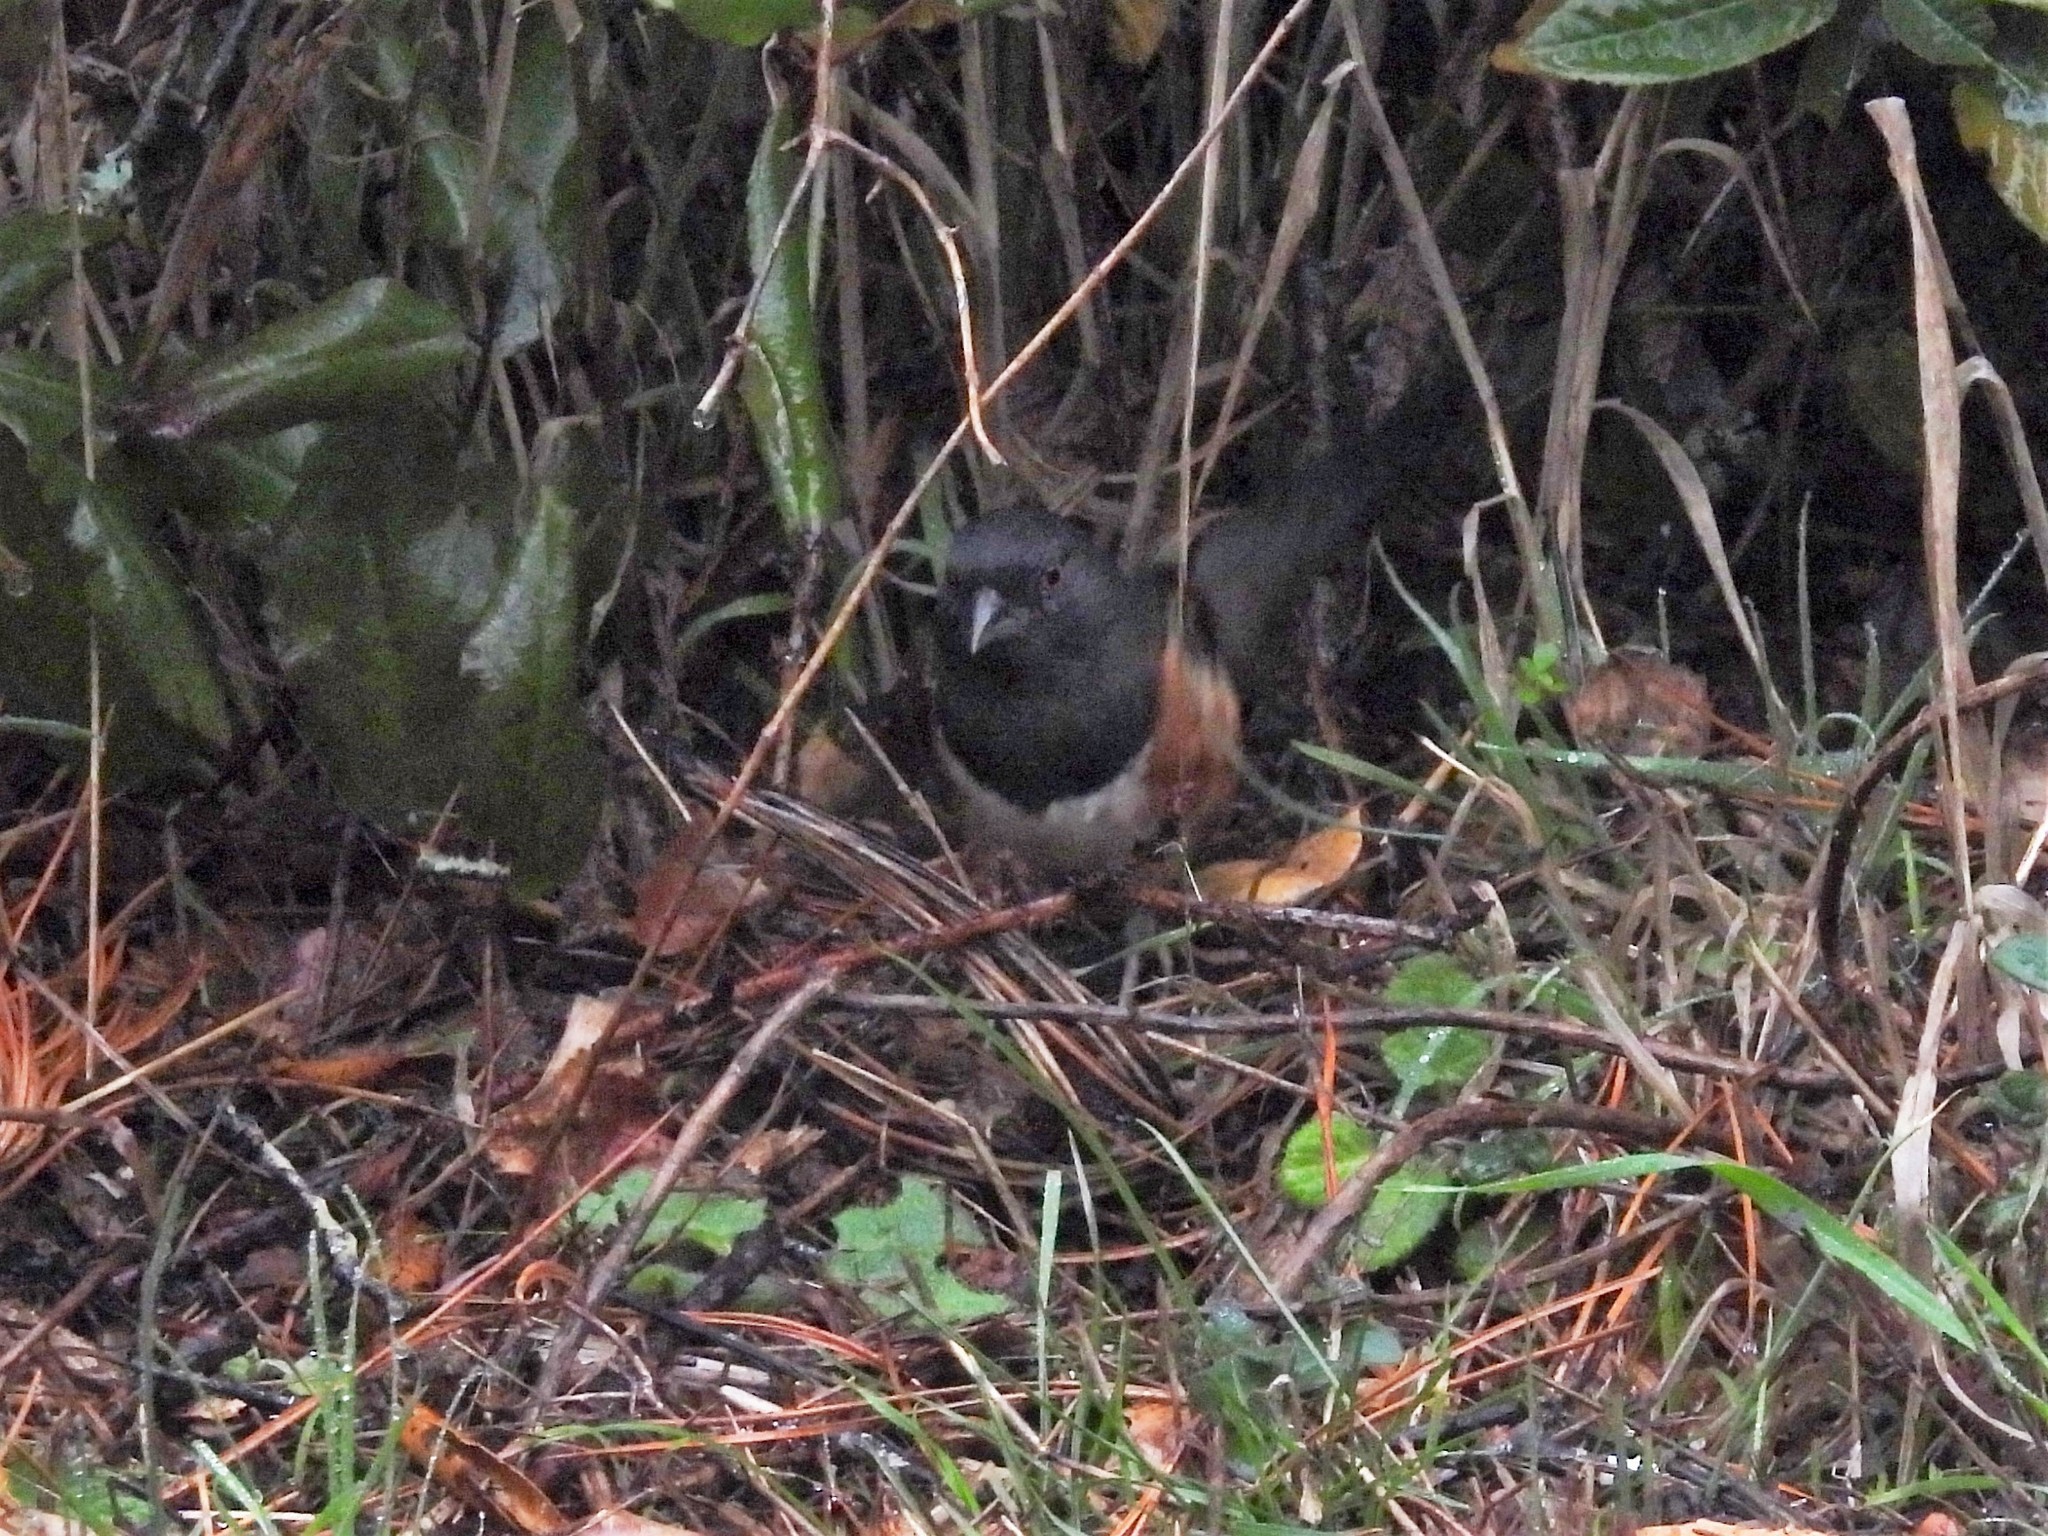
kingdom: Animalia
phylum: Chordata
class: Aves
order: Passeriformes
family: Passerellidae
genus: Pipilo
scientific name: Pipilo maculatus
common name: Spotted towhee
